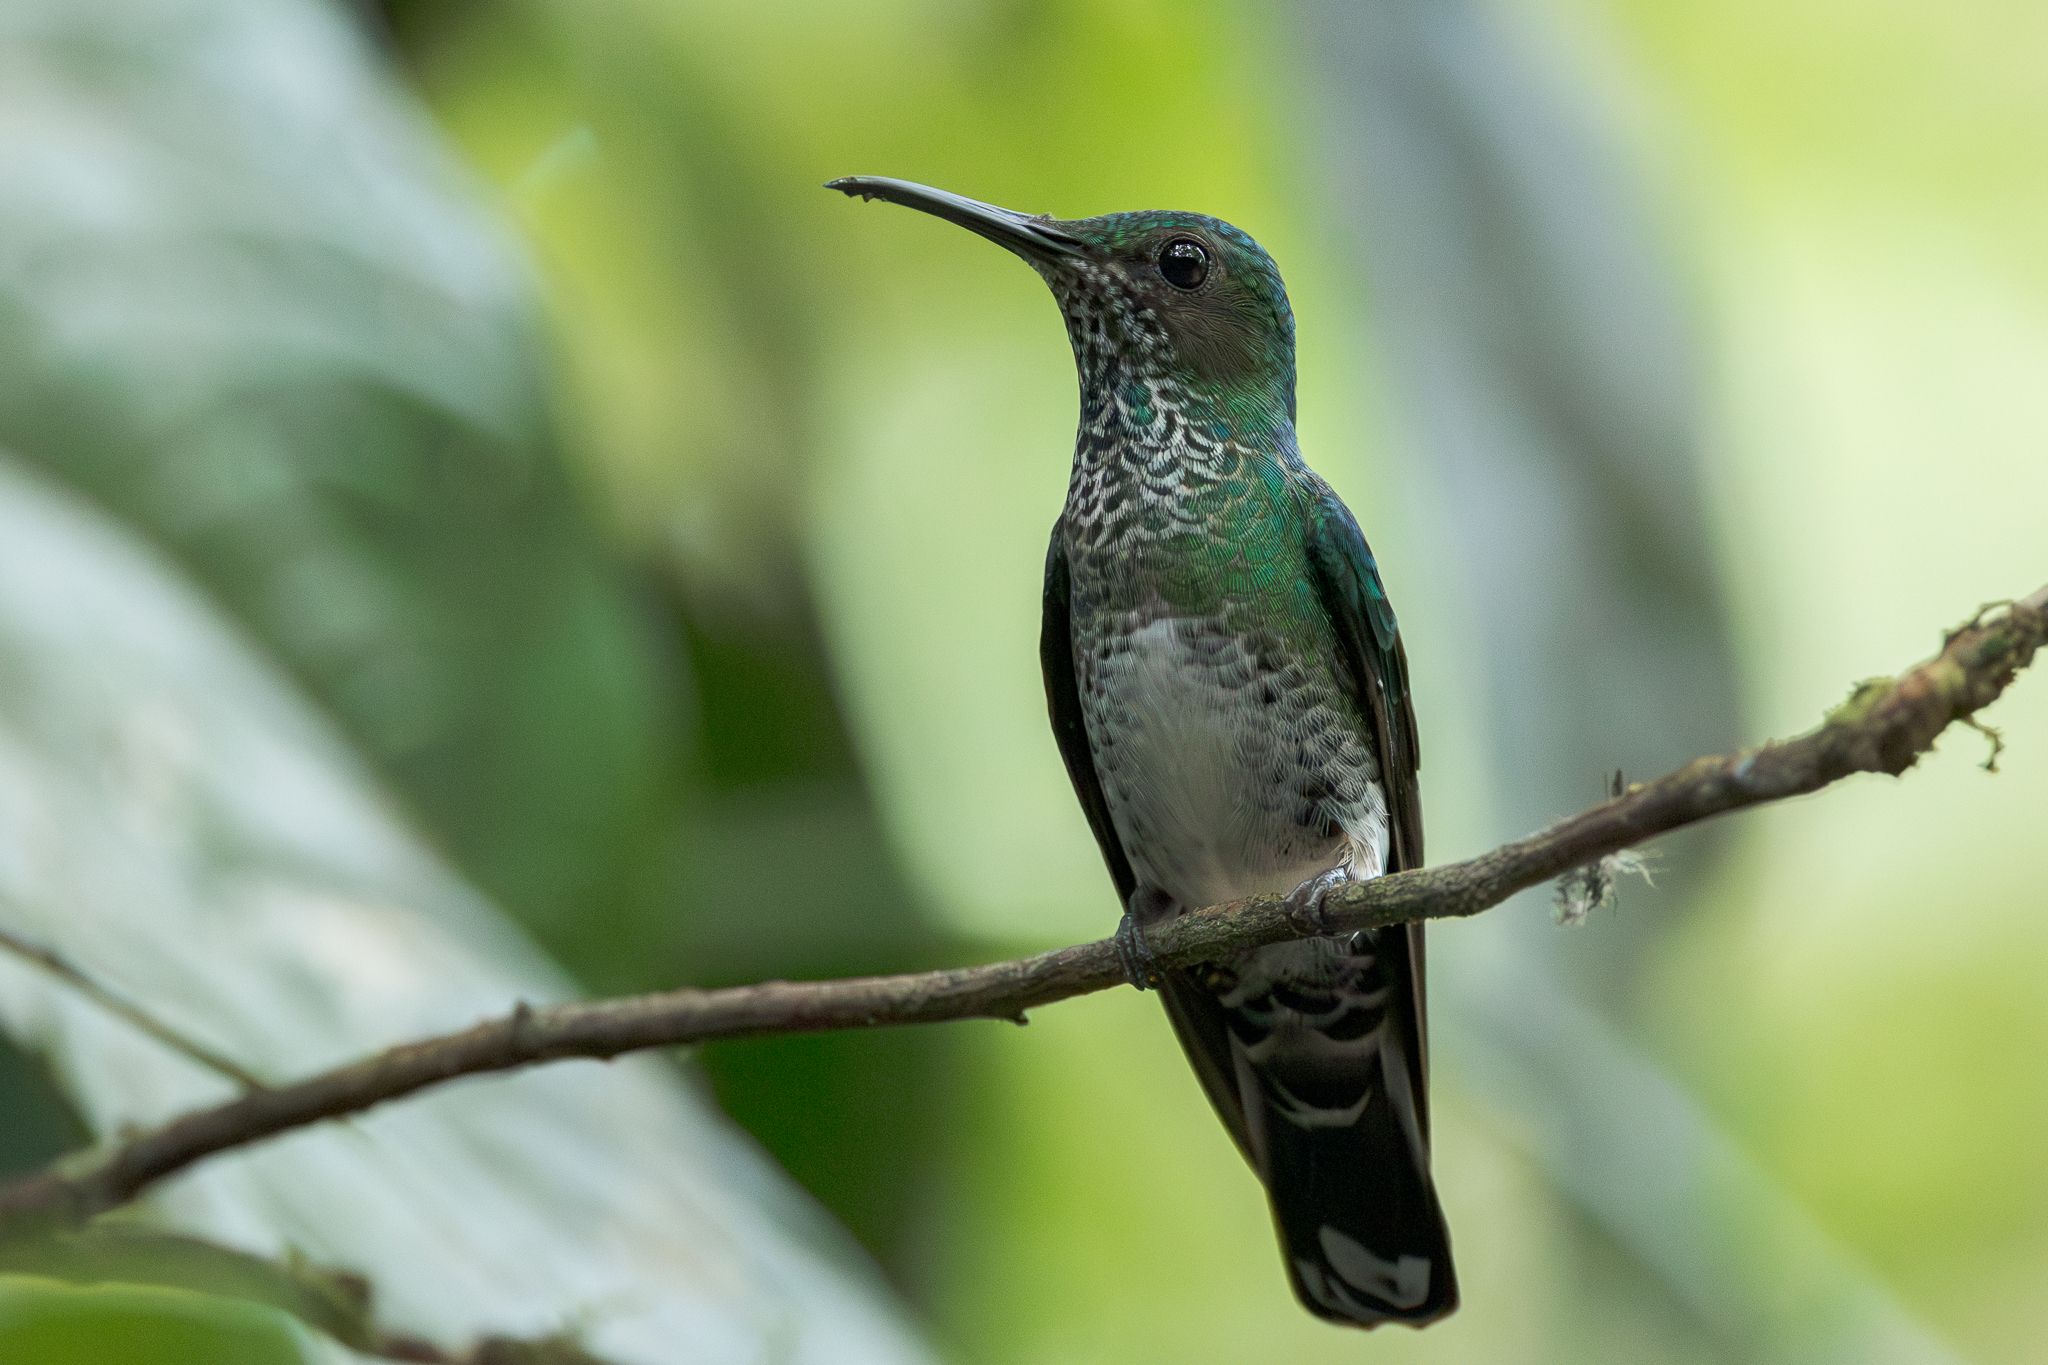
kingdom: Animalia
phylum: Chordata
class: Aves
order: Apodiformes
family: Trochilidae
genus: Florisuga
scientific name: Florisuga mellivora
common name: White-necked jacobin
